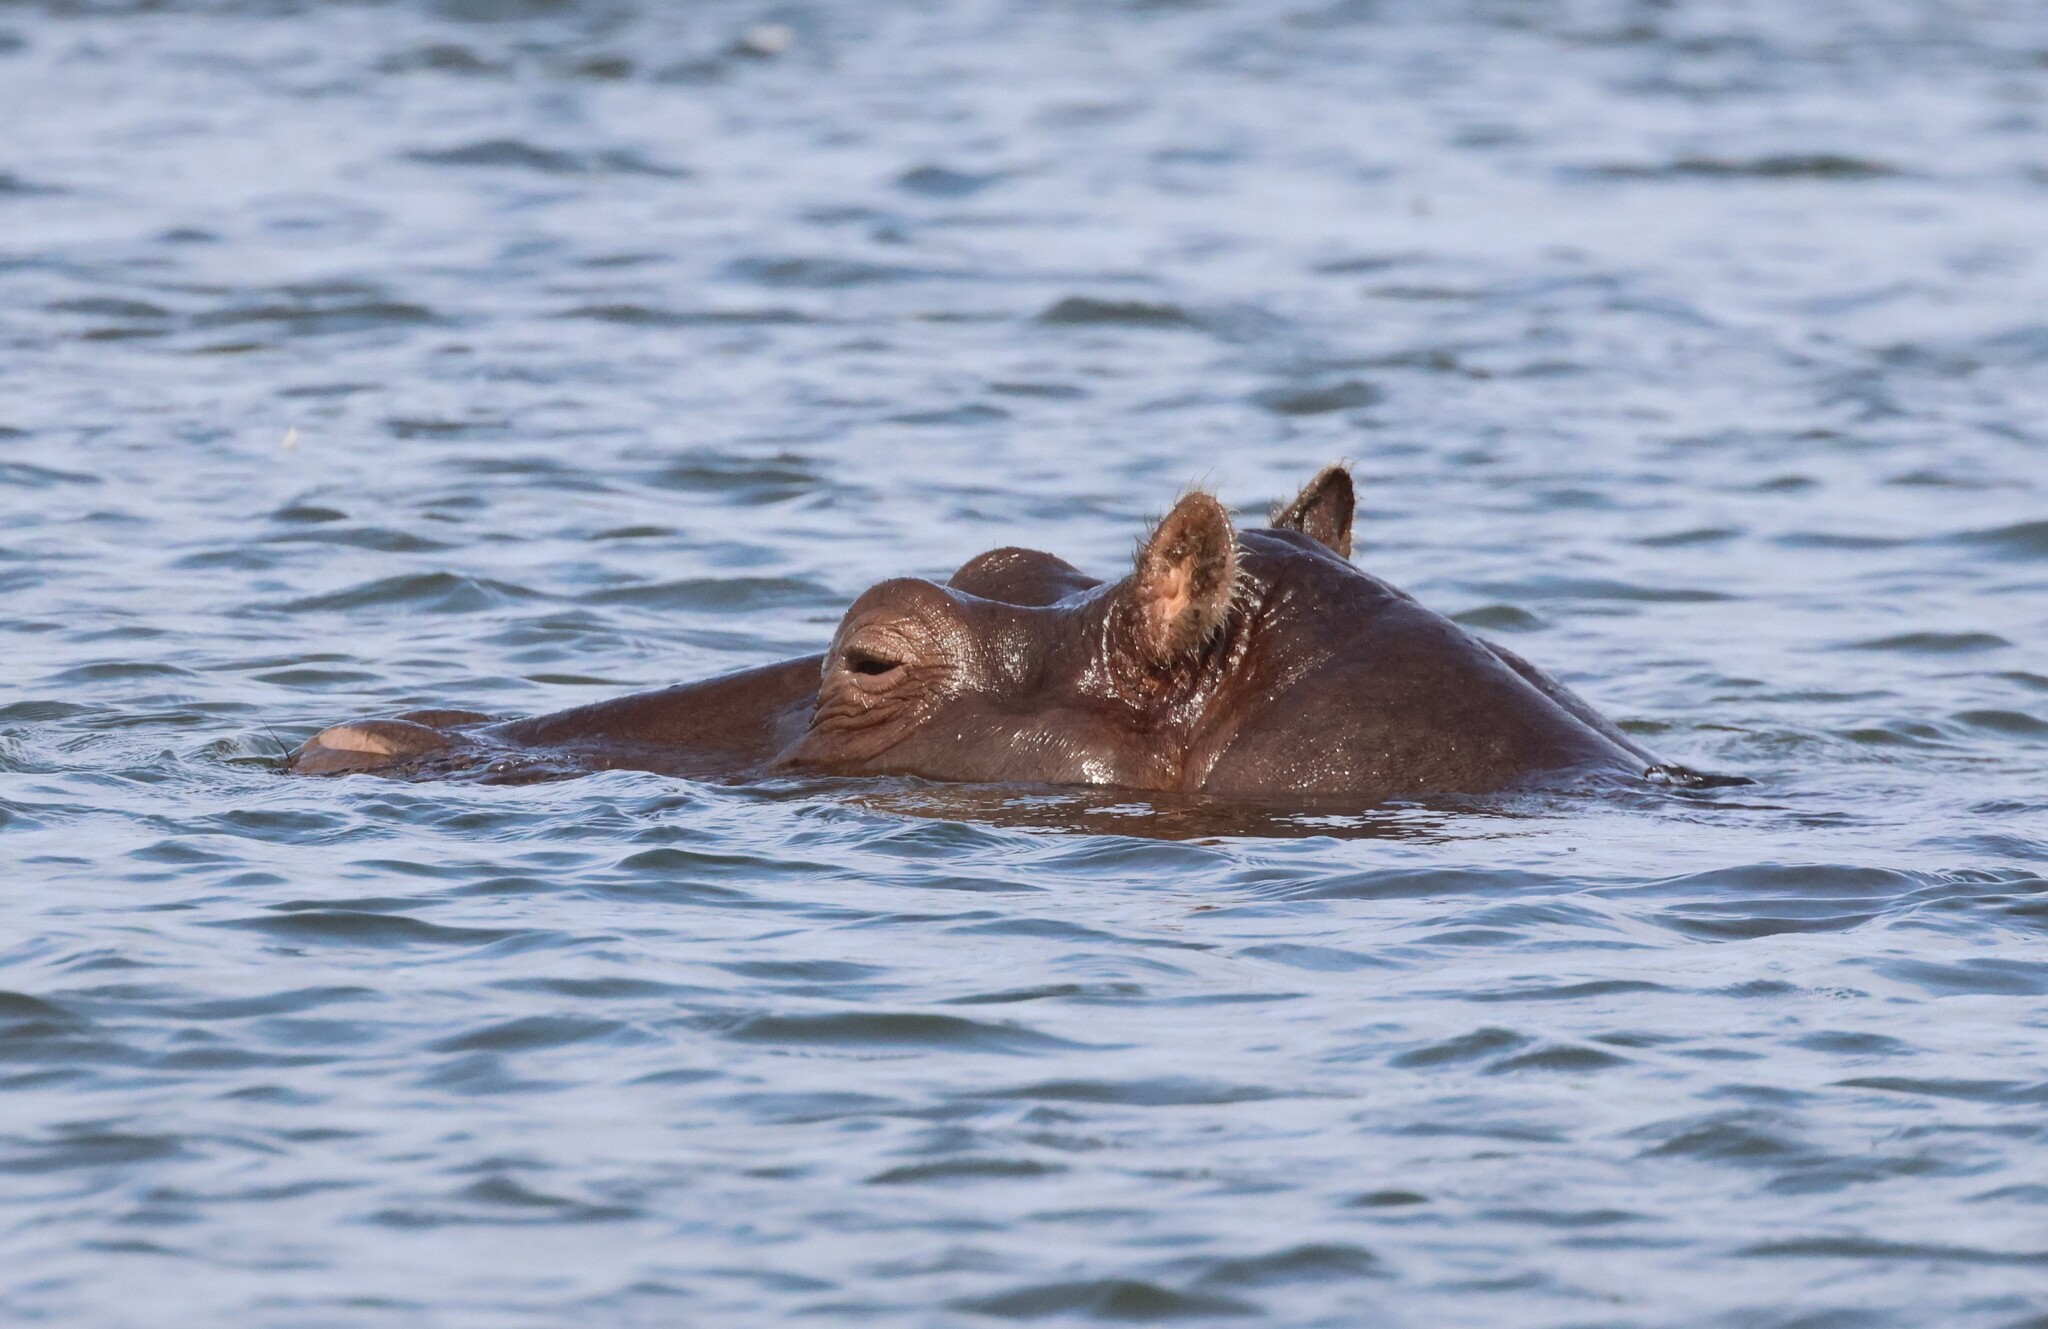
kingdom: Animalia
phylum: Chordata
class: Mammalia
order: Artiodactyla
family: Hippopotamidae
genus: Hippopotamus
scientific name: Hippopotamus amphibius
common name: Common hippopotamus
